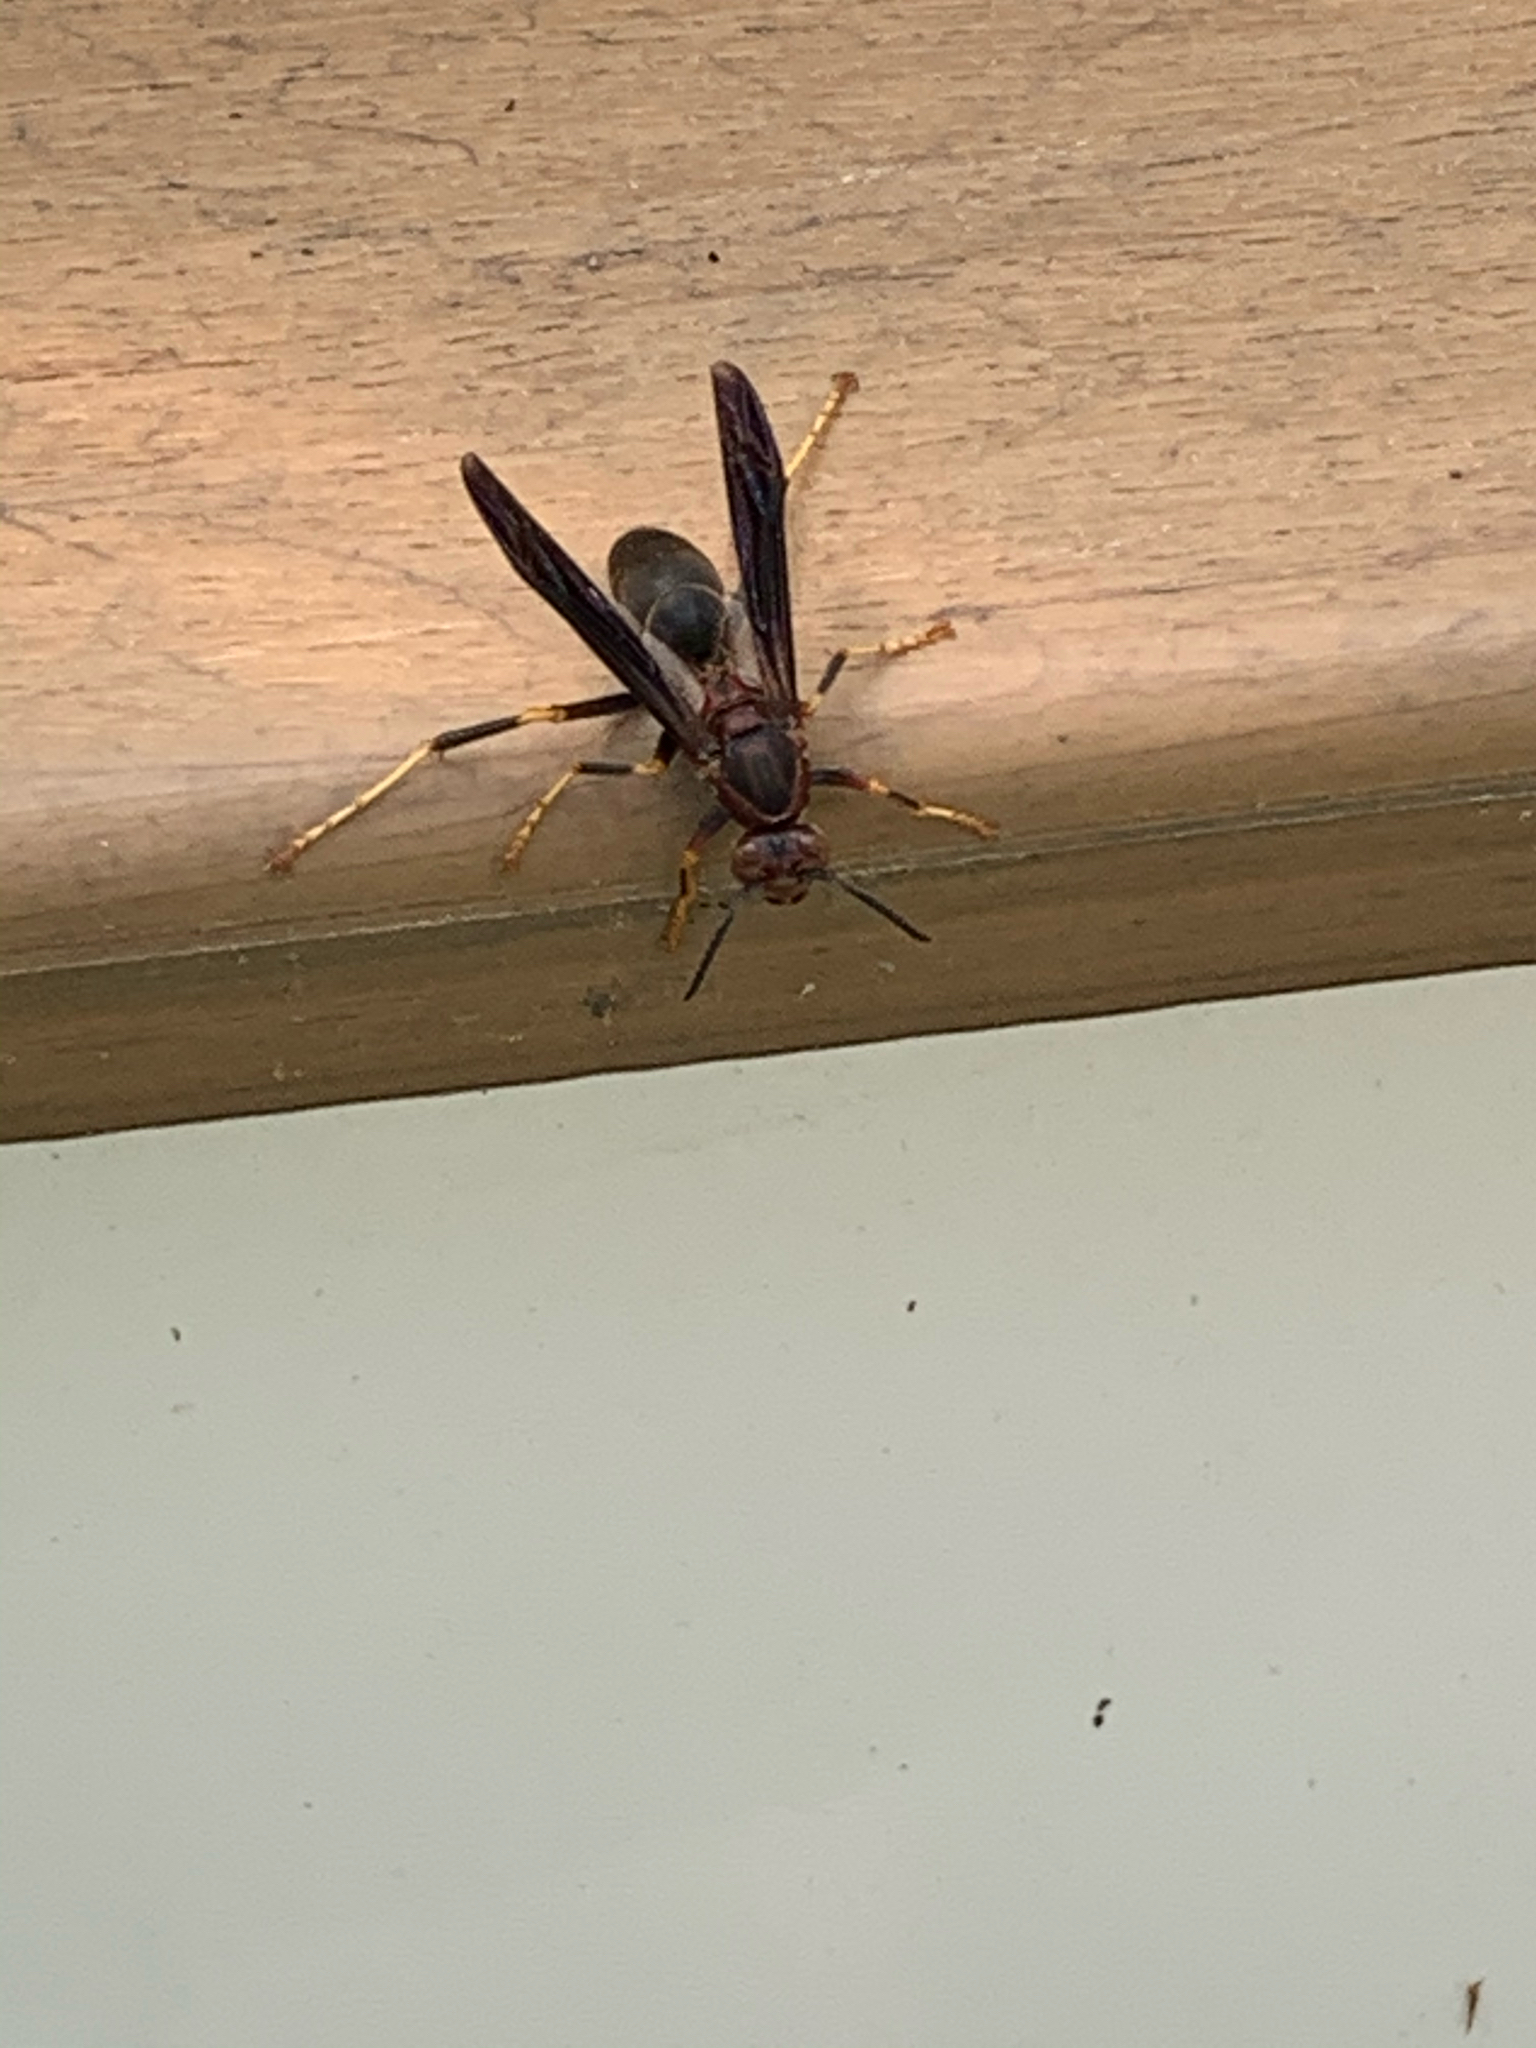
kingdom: Animalia
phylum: Arthropoda
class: Insecta
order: Hymenoptera
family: Eumenidae
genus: Polistes
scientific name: Polistes metricus
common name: Metric paper wasp
